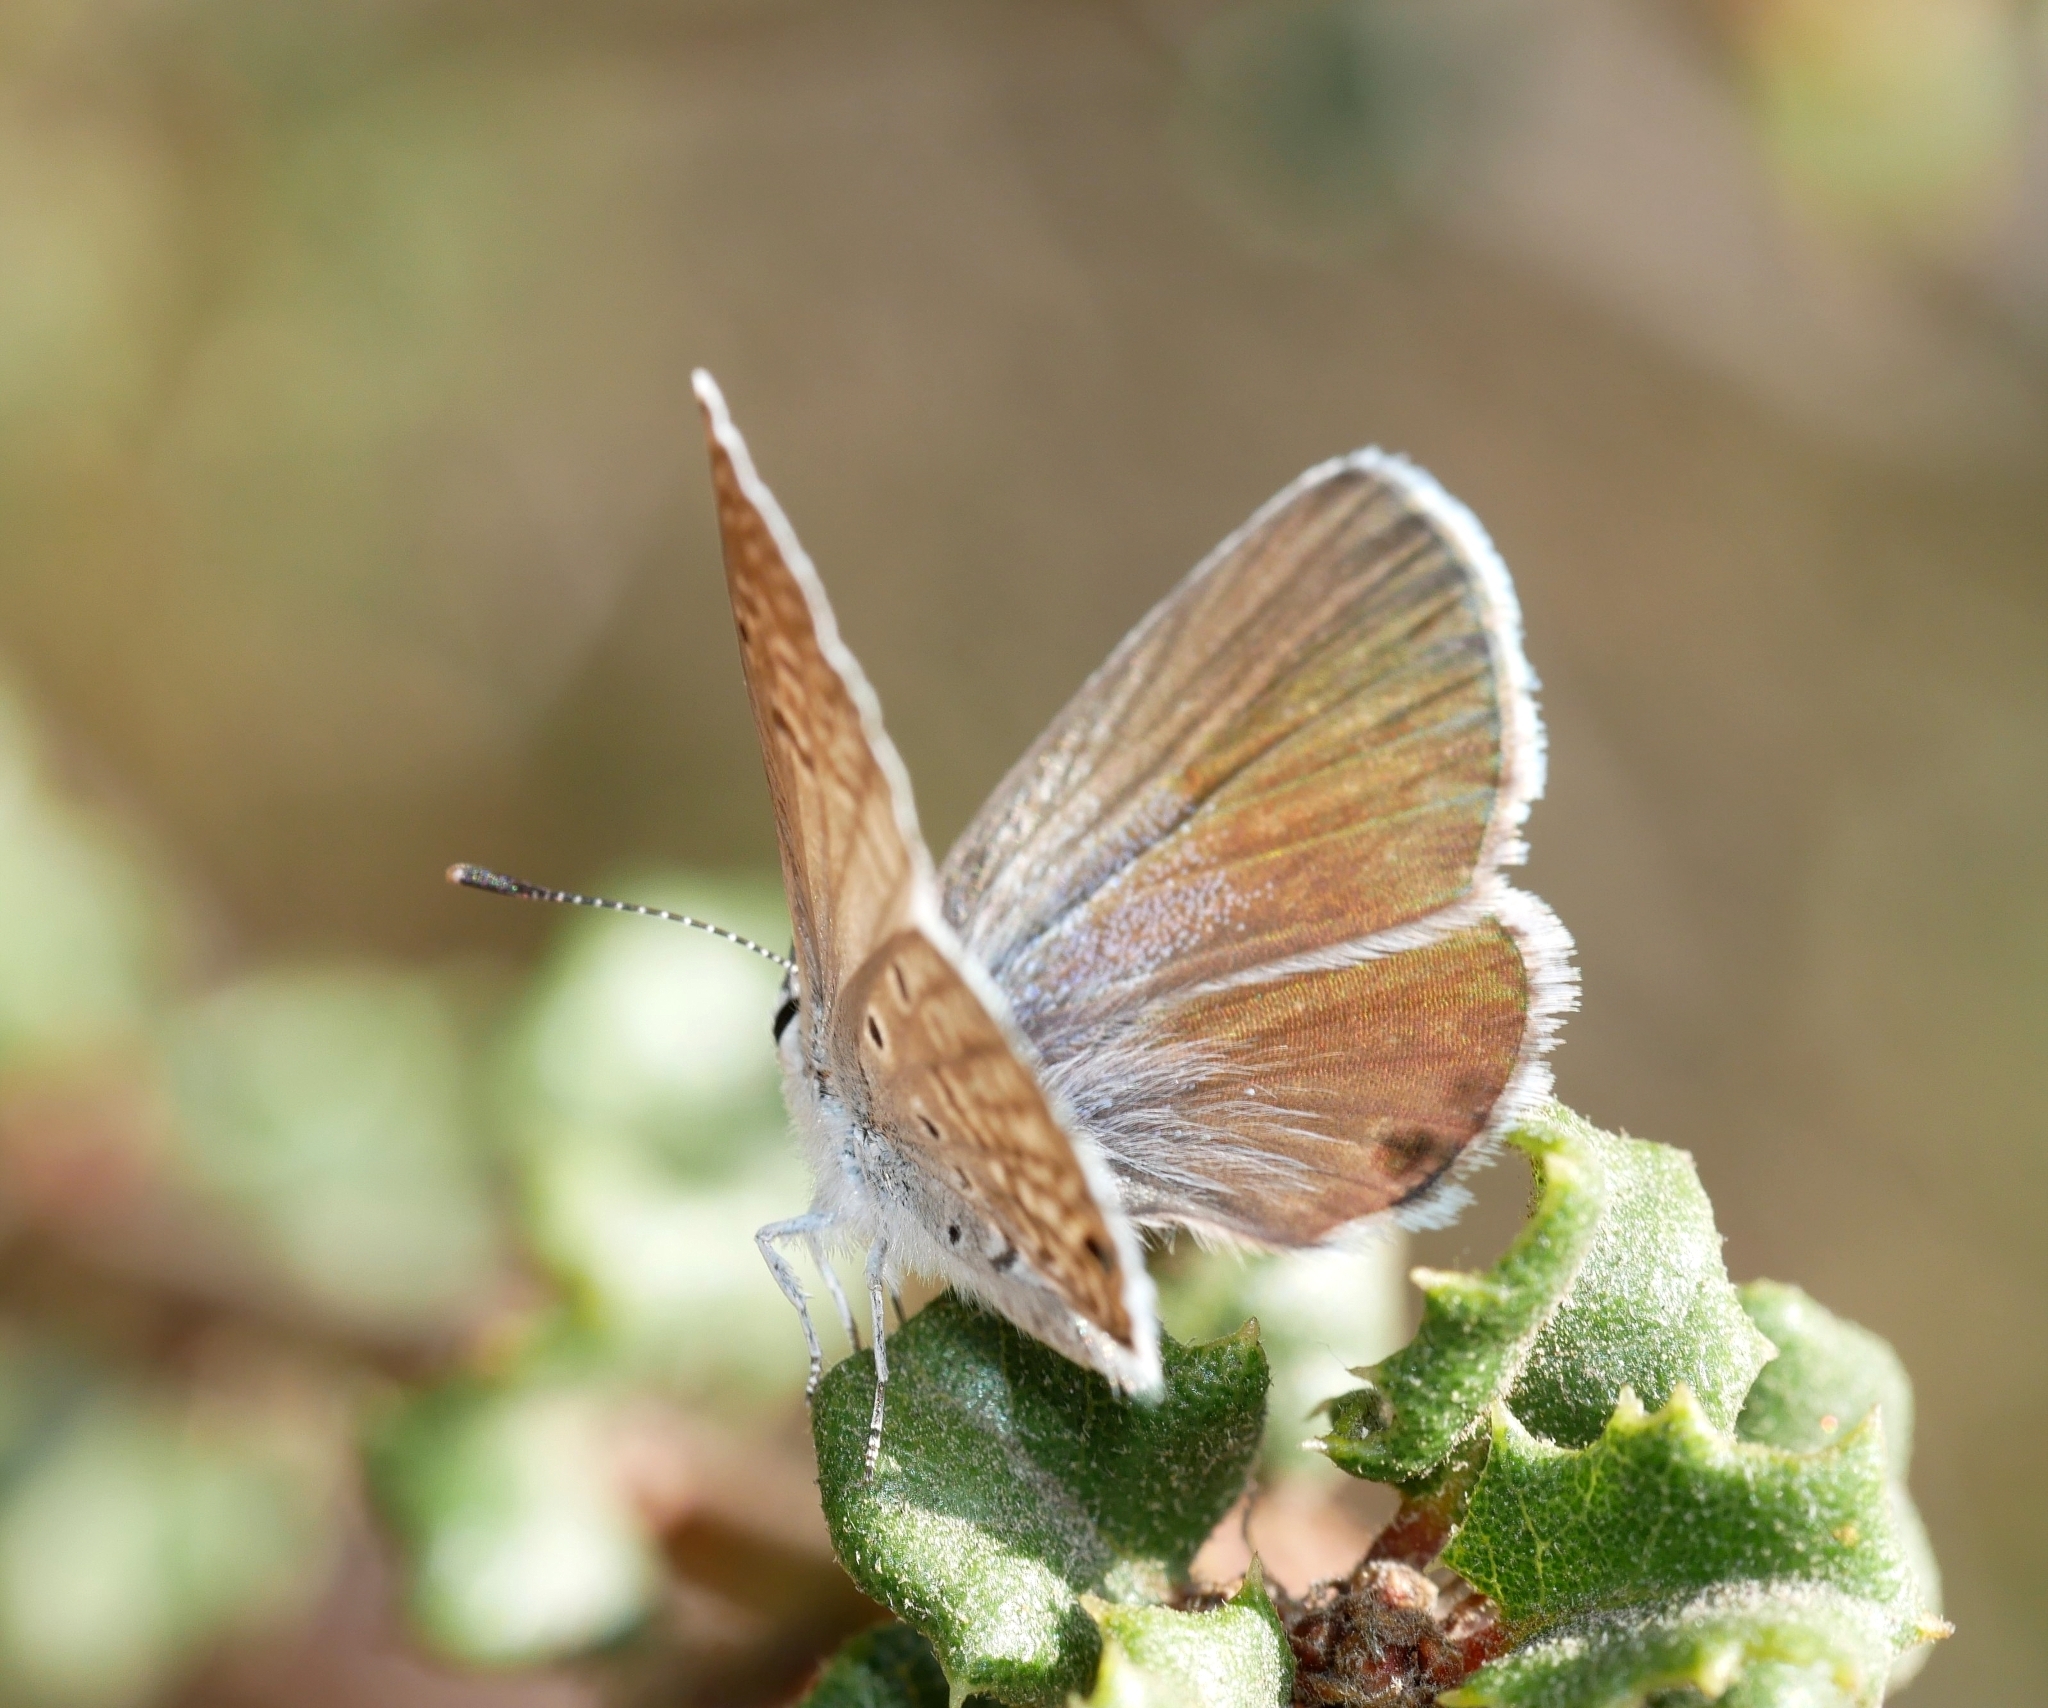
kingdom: Animalia
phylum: Arthropoda
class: Insecta
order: Lepidoptera
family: Lycaenidae
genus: Hemiargus
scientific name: Hemiargus ceraunus
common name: Ceraunus blue
